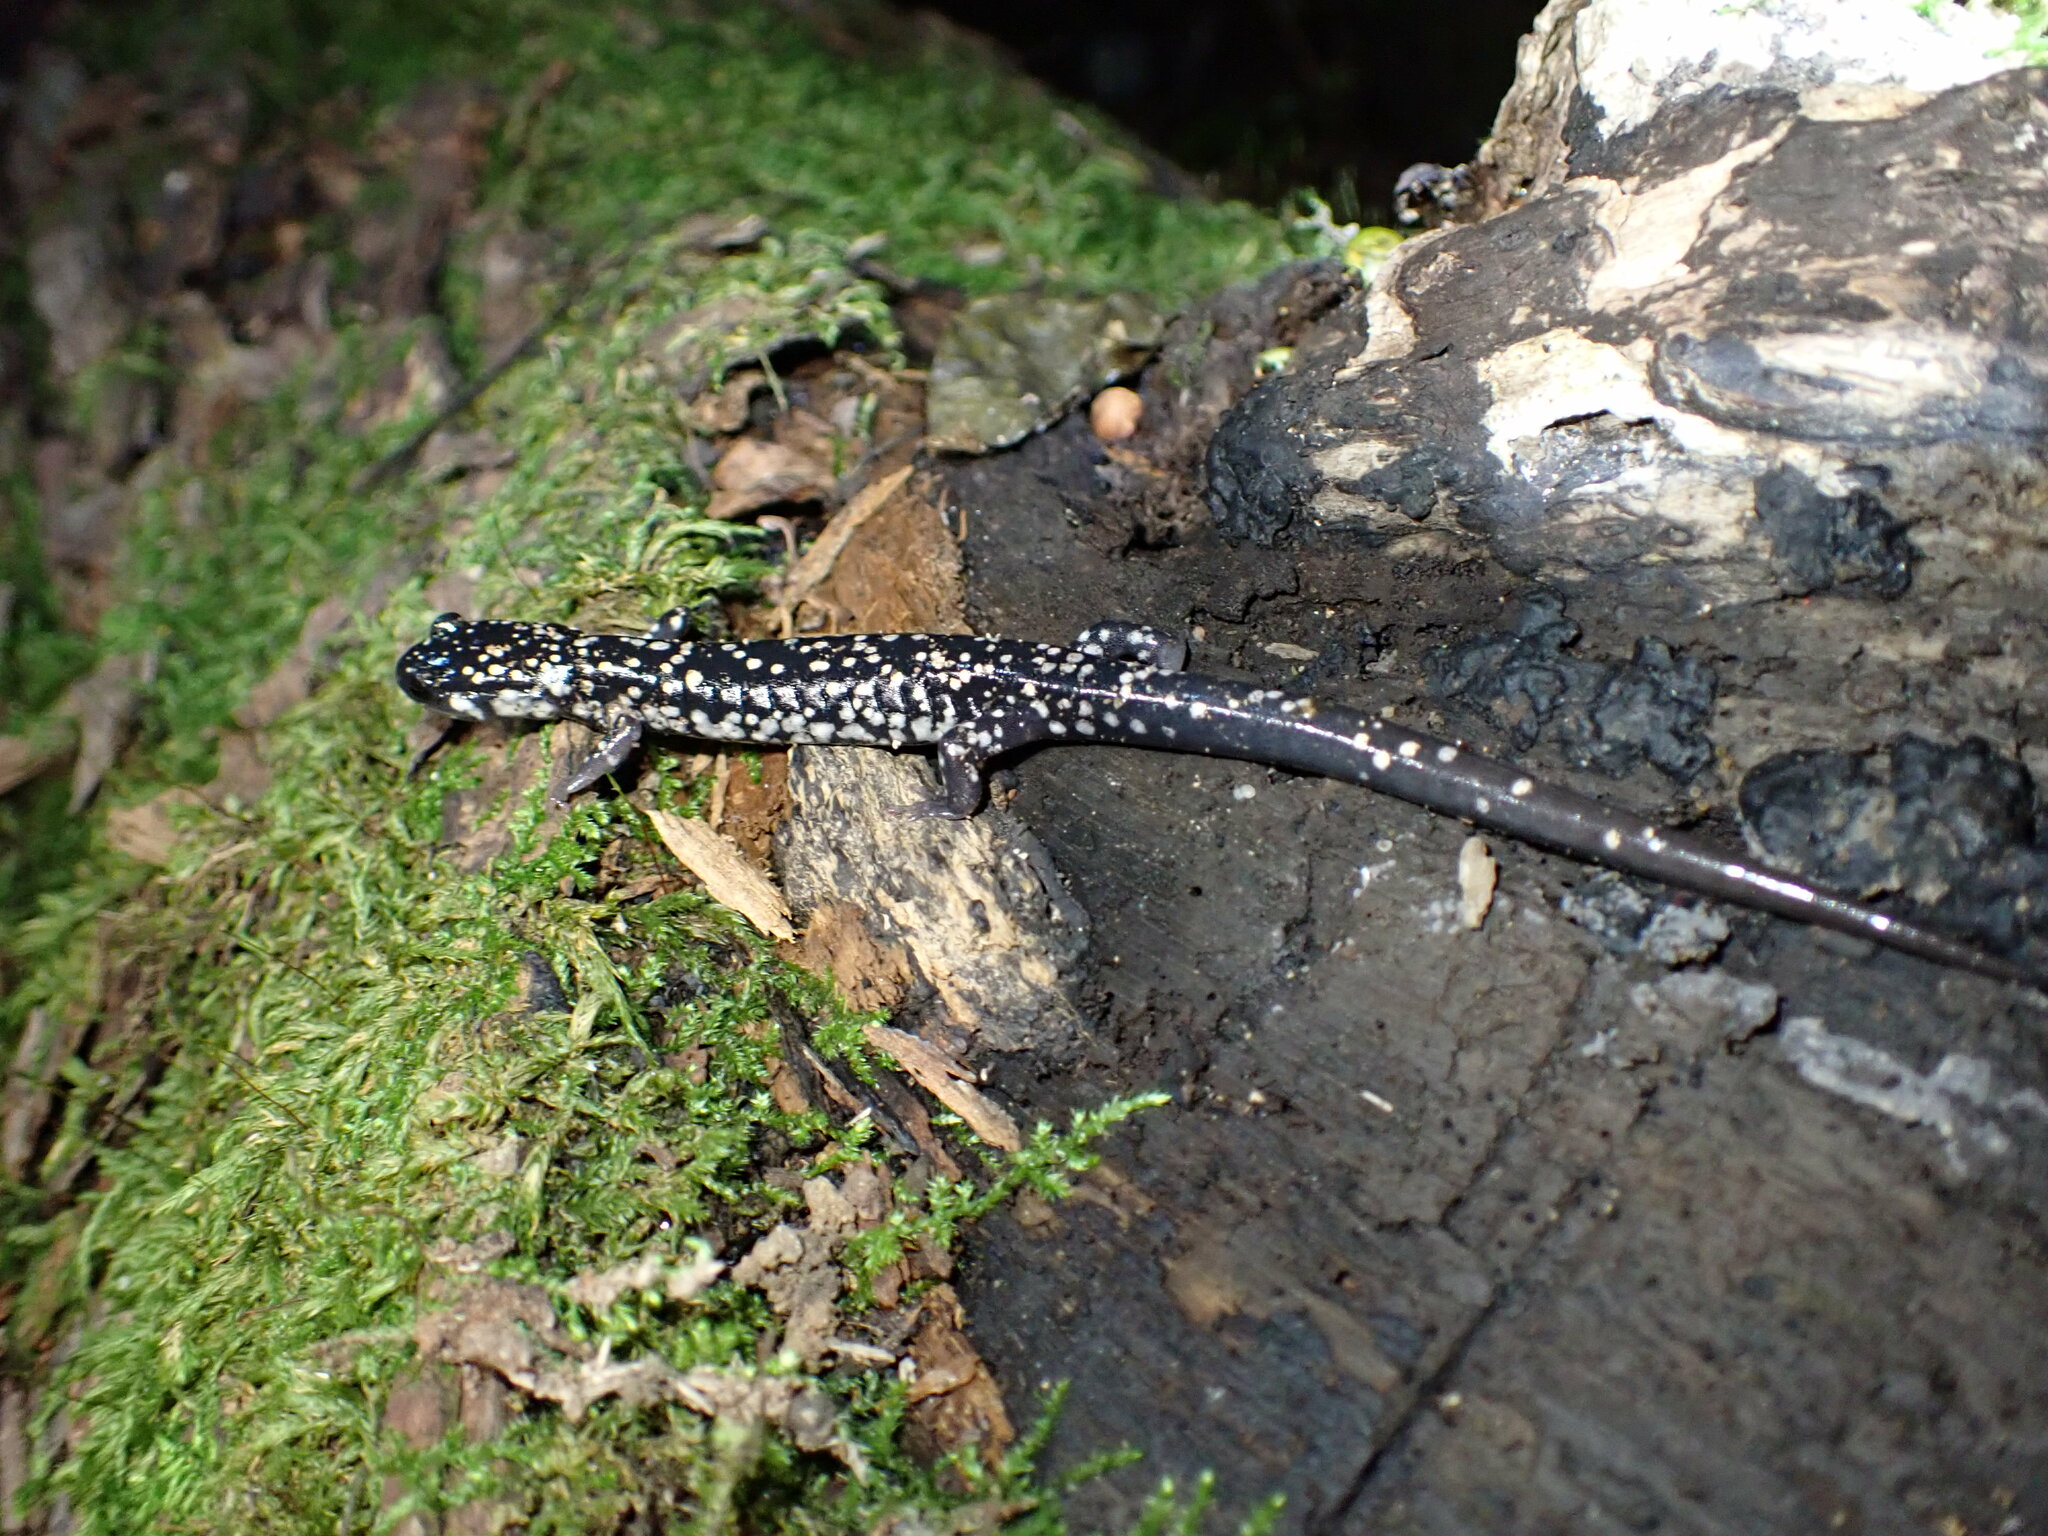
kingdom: Animalia
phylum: Chordata
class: Amphibia
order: Caudata
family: Plethodontidae
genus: Plethodon
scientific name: Plethodon glutinosus
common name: Northern slimy salamander
